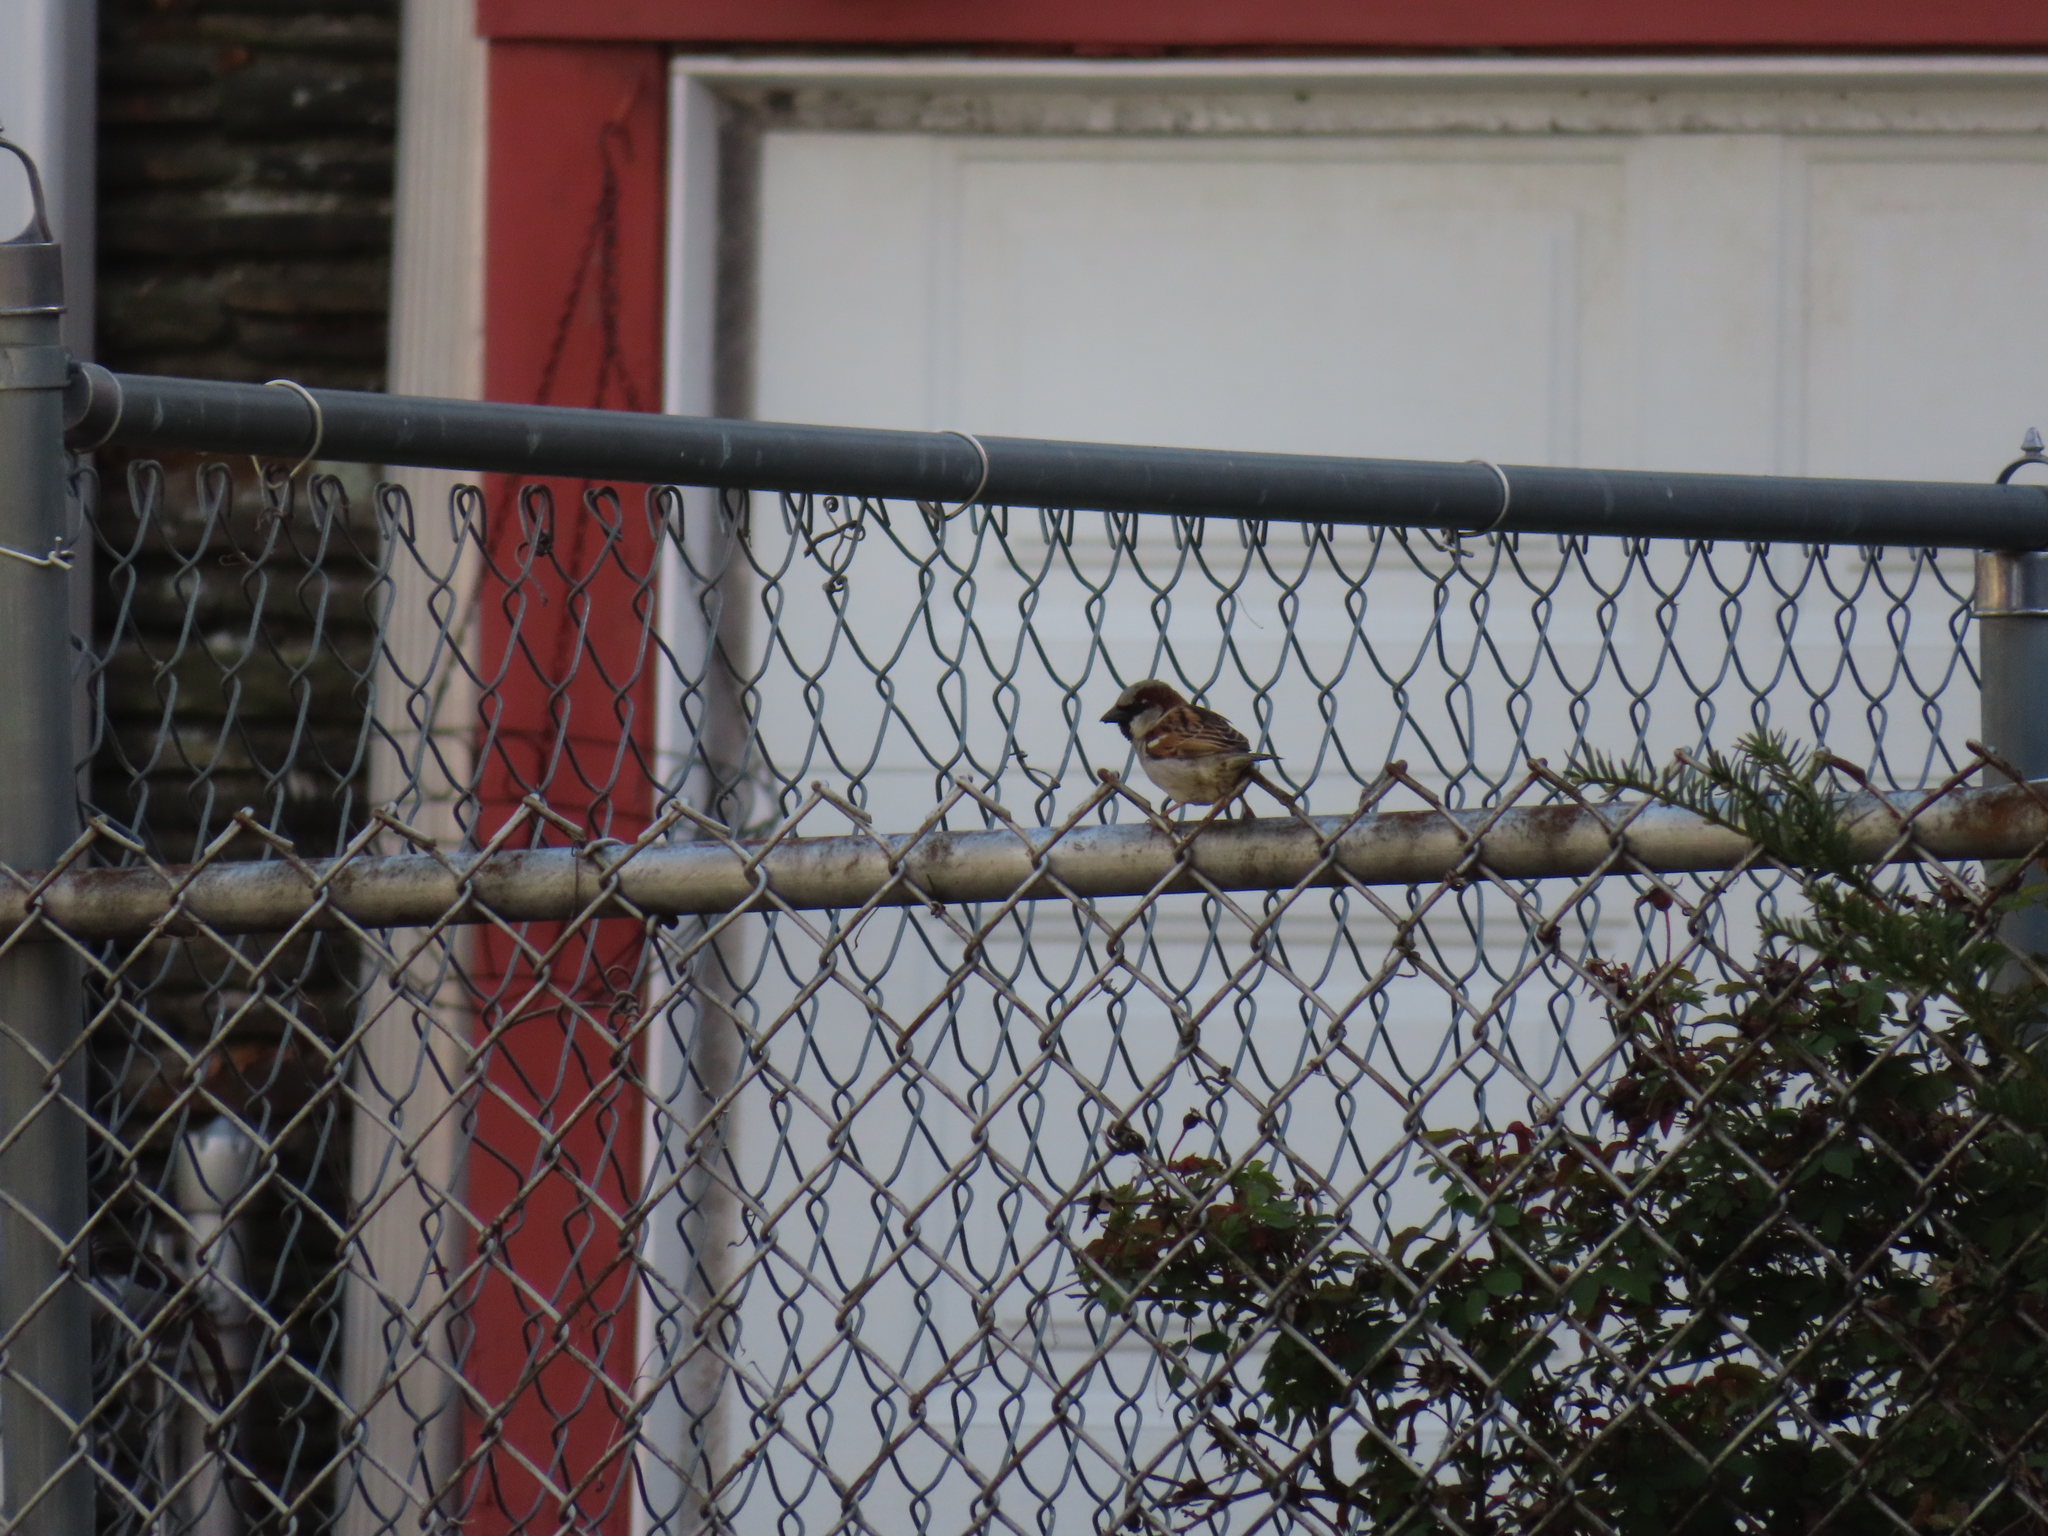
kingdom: Animalia
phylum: Chordata
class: Aves
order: Passeriformes
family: Passeridae
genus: Passer
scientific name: Passer domesticus
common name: House sparrow
